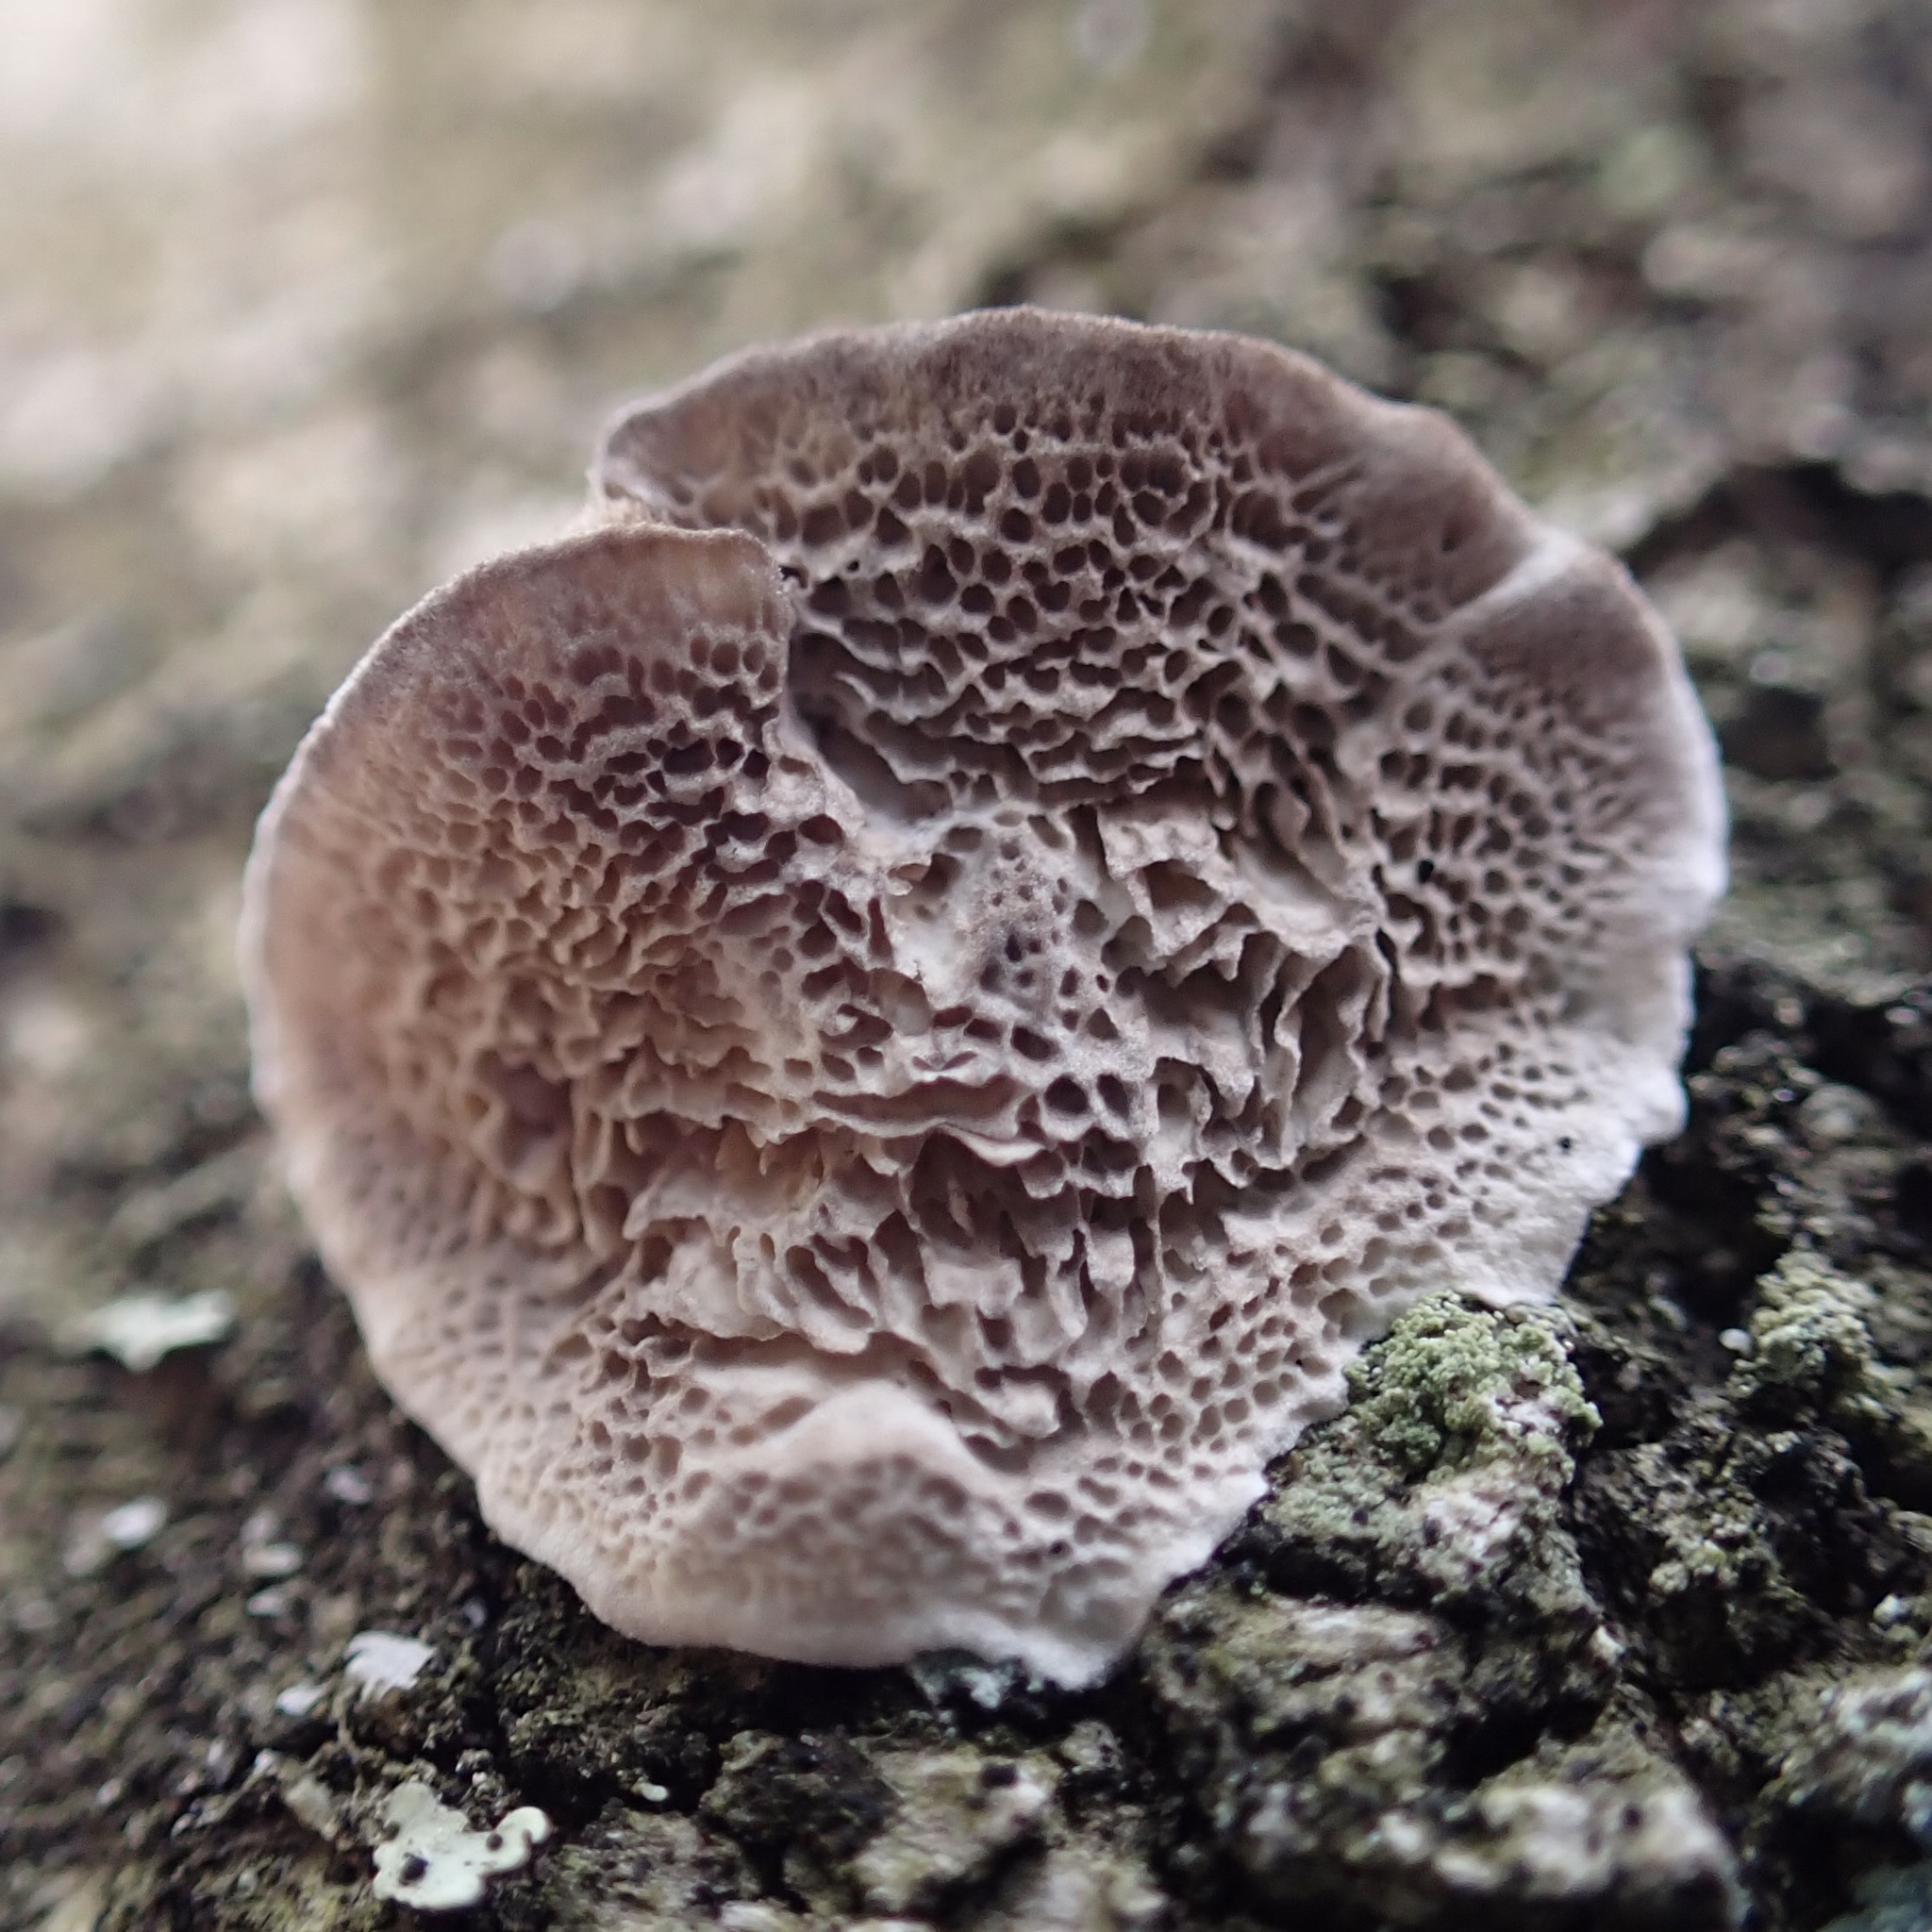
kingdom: Fungi
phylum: Basidiomycota
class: Agaricomycetes
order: Hymenochaetales
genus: Trichaptum
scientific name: Trichaptum biforme
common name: Violet-toothed polypore
